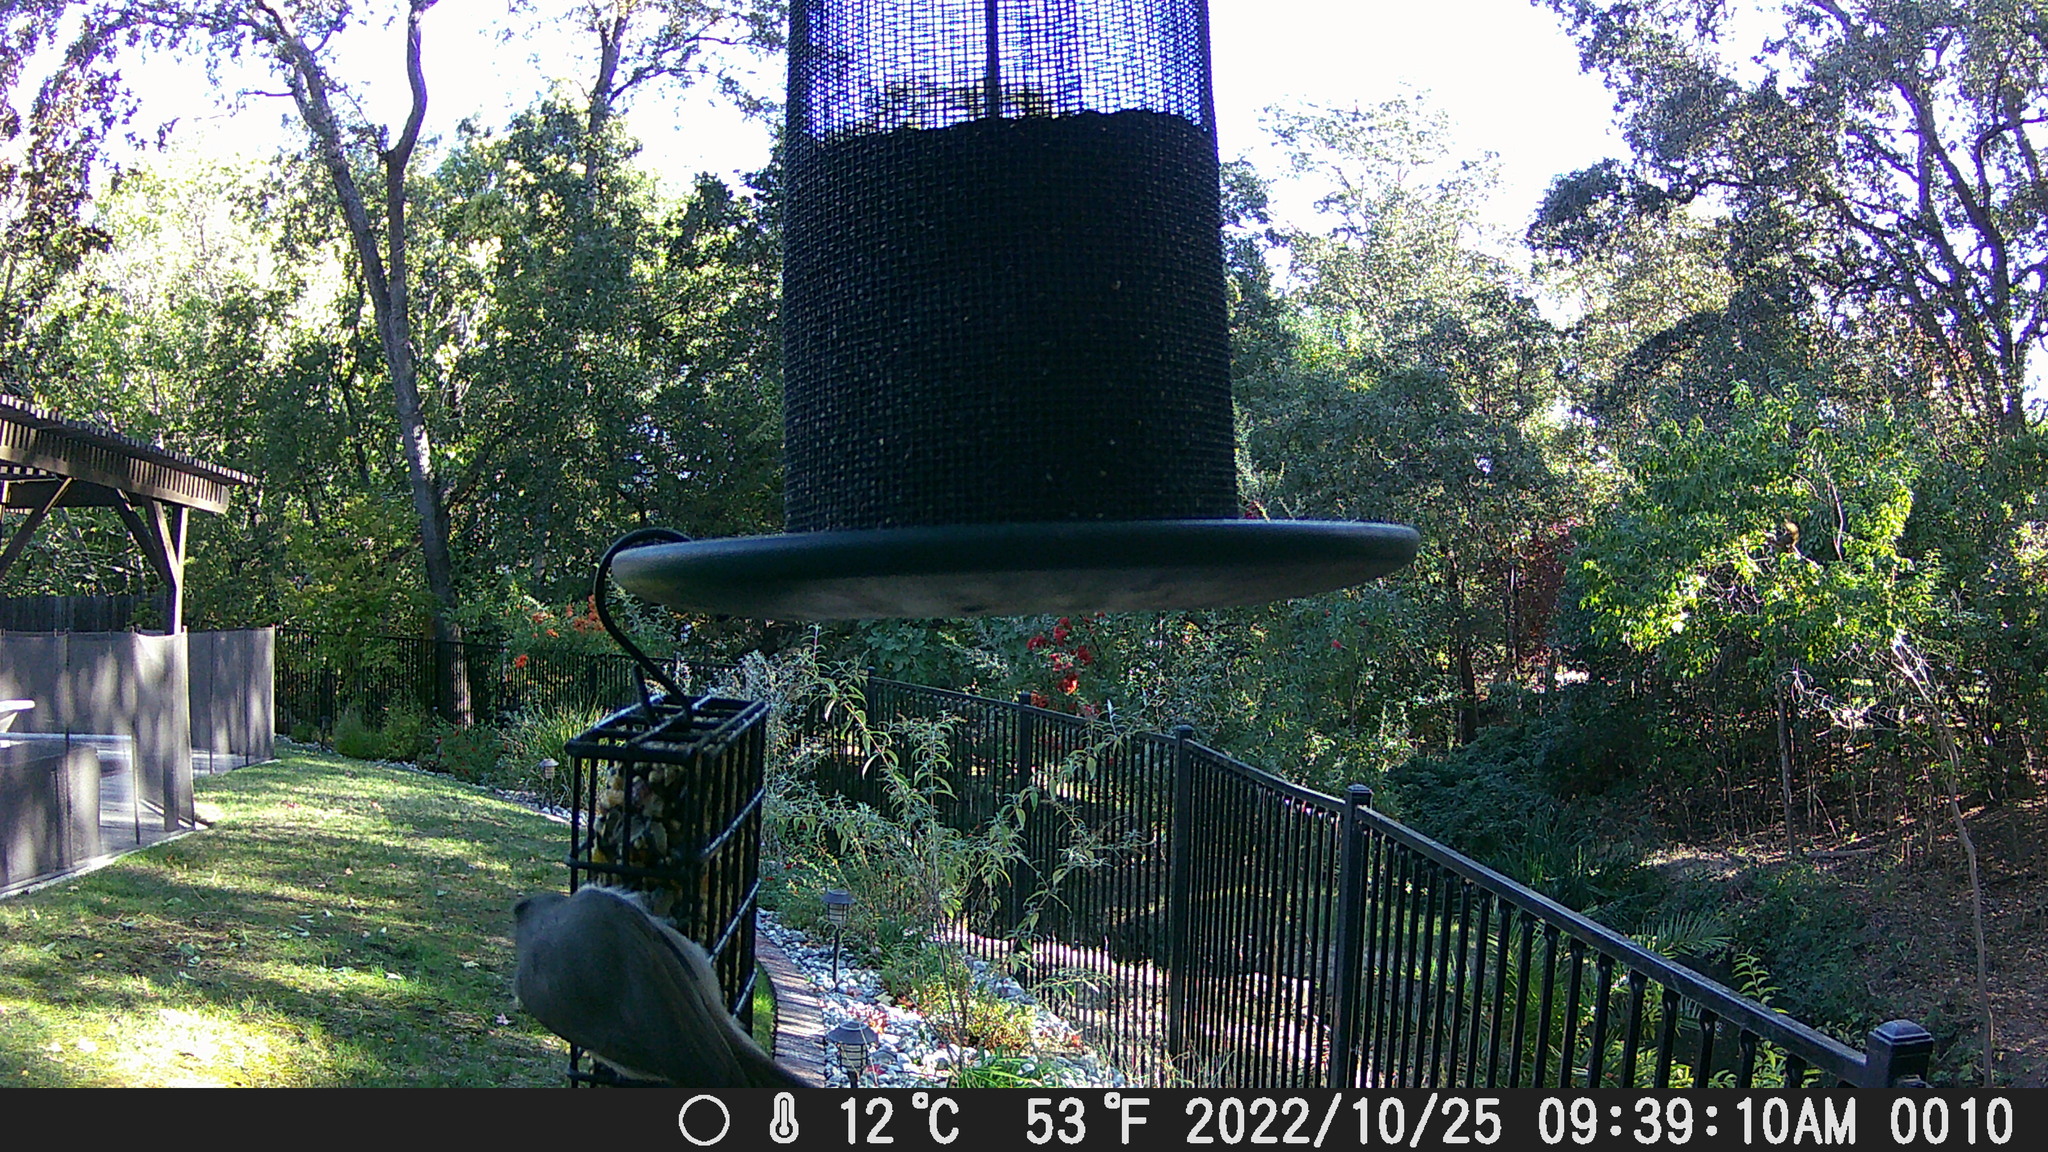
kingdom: Animalia
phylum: Chordata
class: Aves
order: Passeriformes
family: Paridae
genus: Baeolophus
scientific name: Baeolophus inornatus
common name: Oak titmouse
